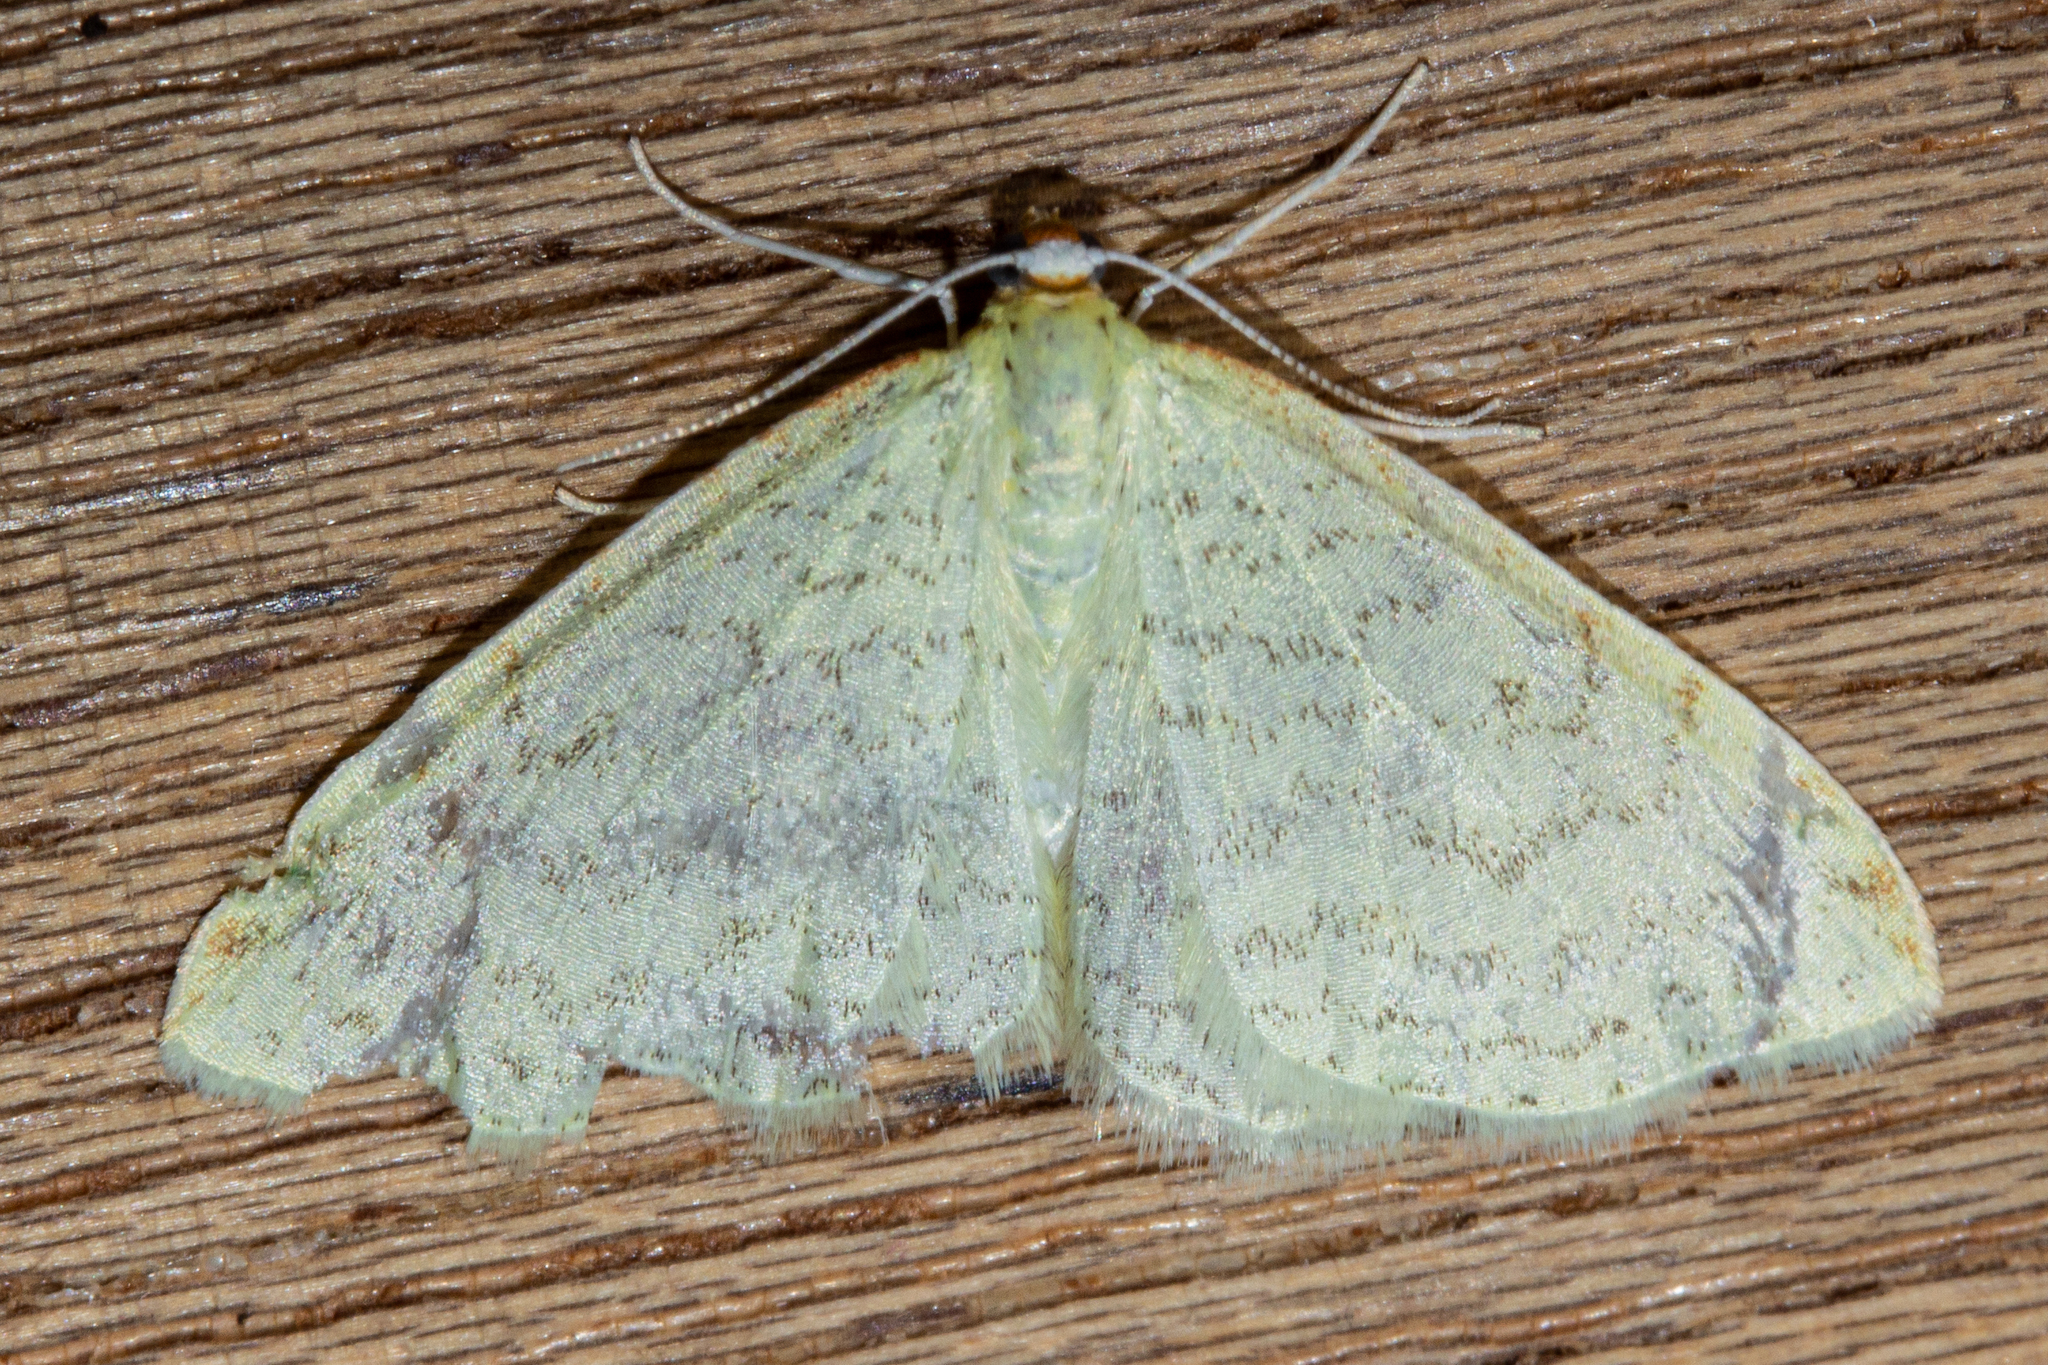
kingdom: Animalia
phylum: Arthropoda
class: Insecta
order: Lepidoptera
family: Geometridae
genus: Epiphryne
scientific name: Epiphryne undosata
